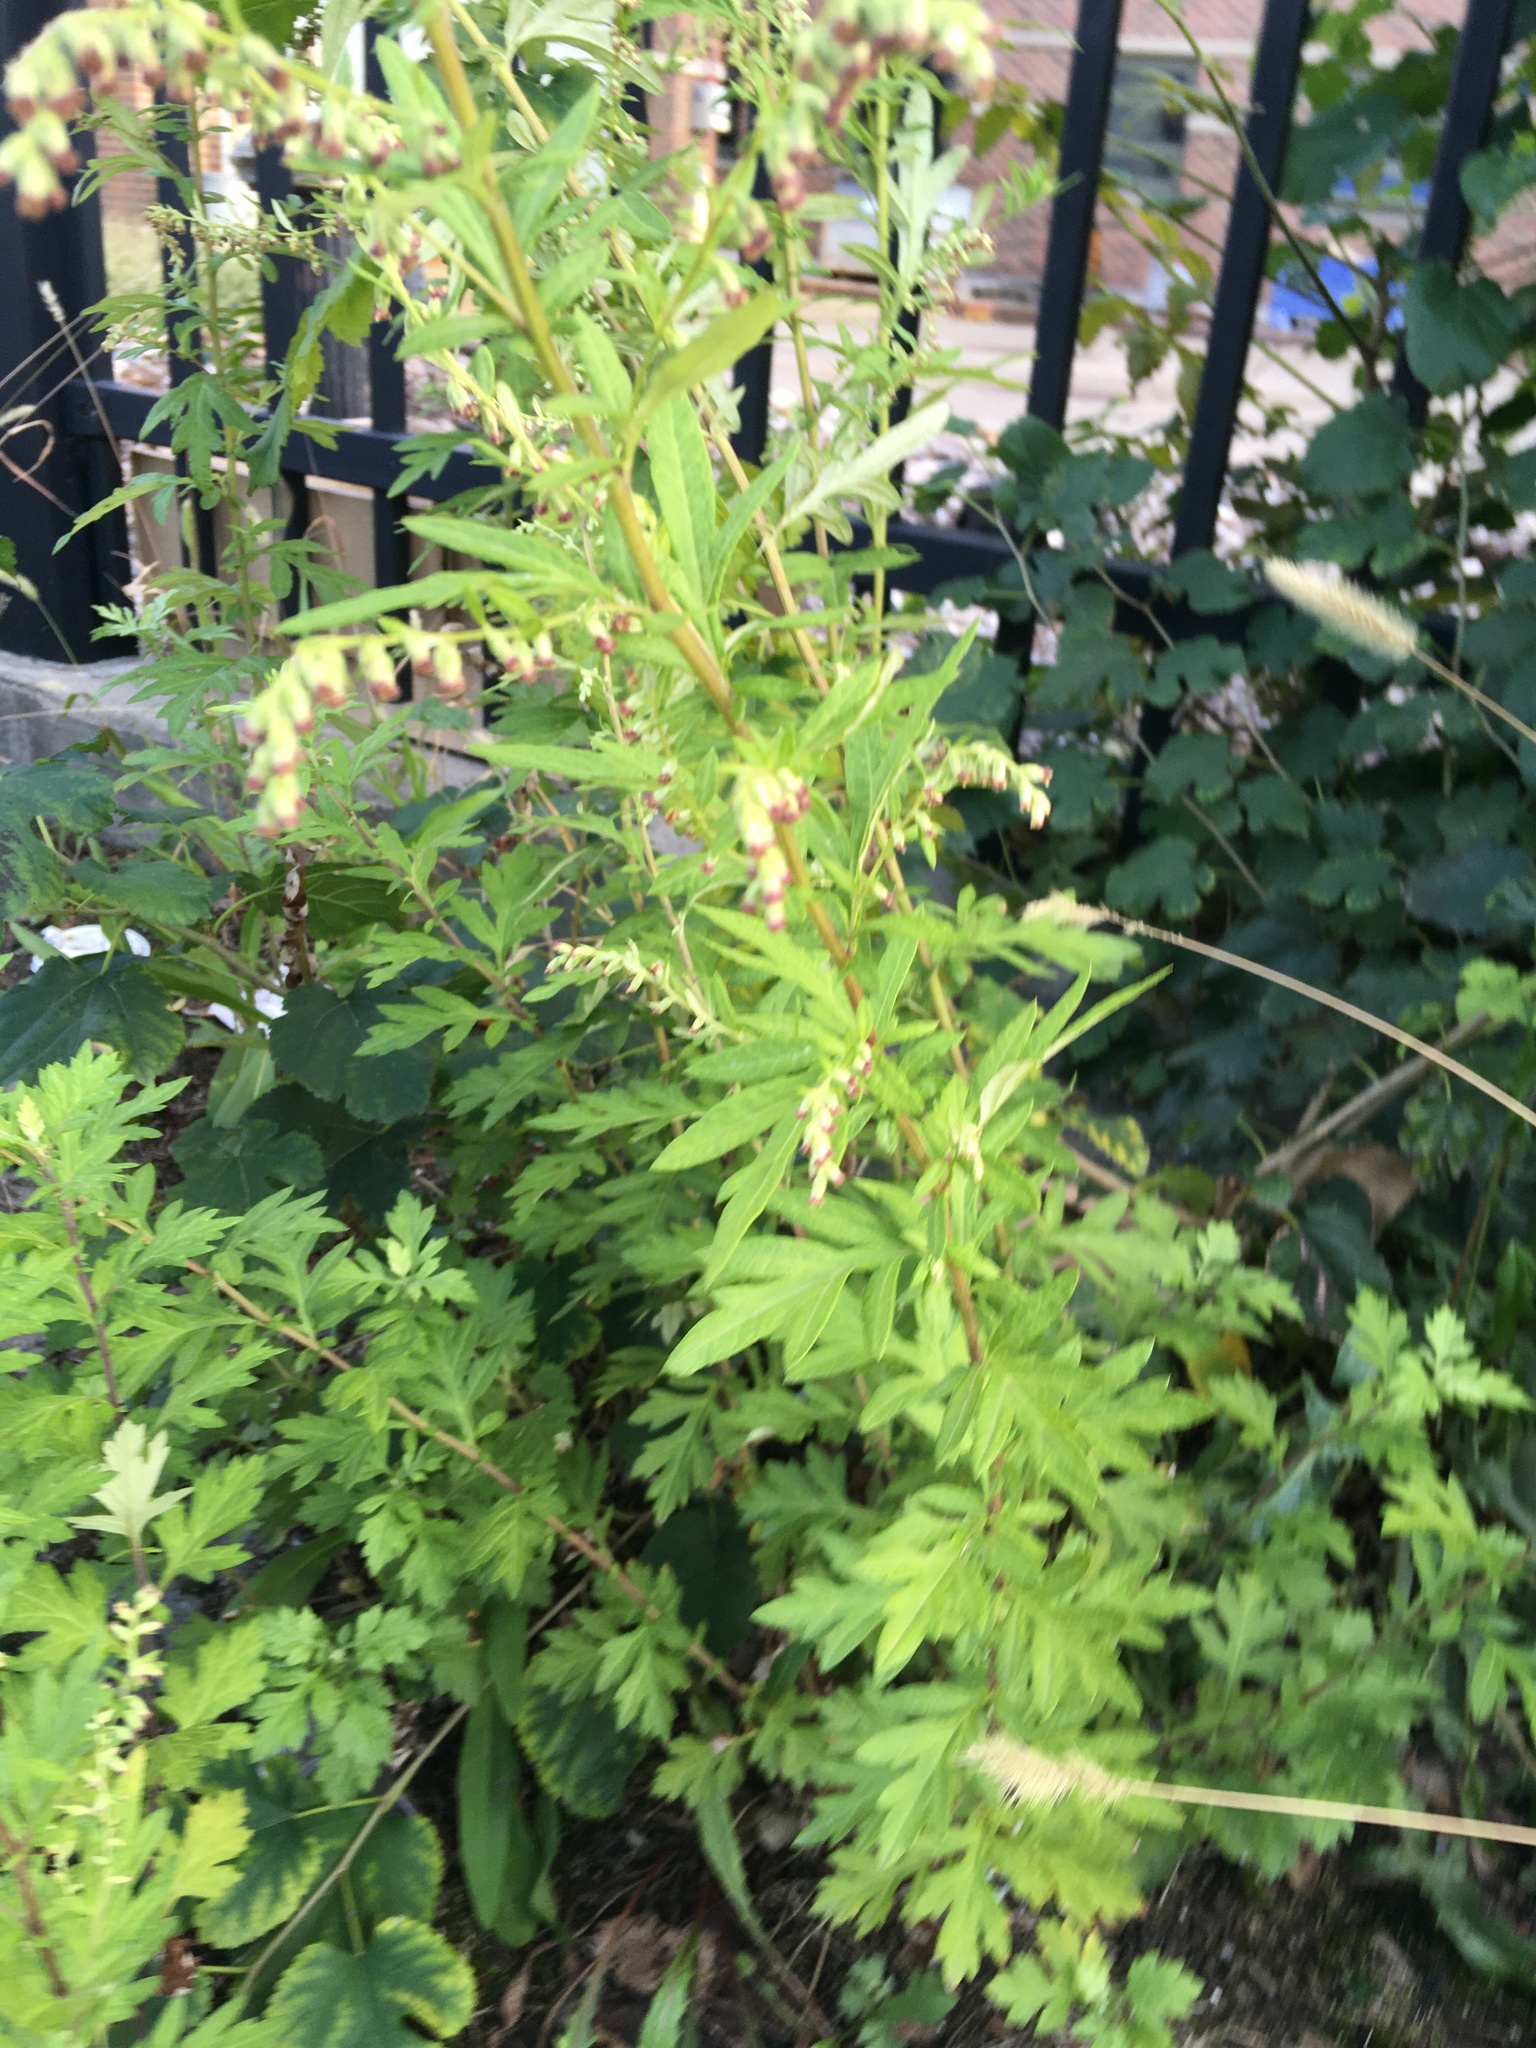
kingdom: Plantae
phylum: Tracheophyta
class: Magnoliopsida
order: Asterales
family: Asteraceae
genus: Artemisia
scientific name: Artemisia vulgaris
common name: Mugwort
